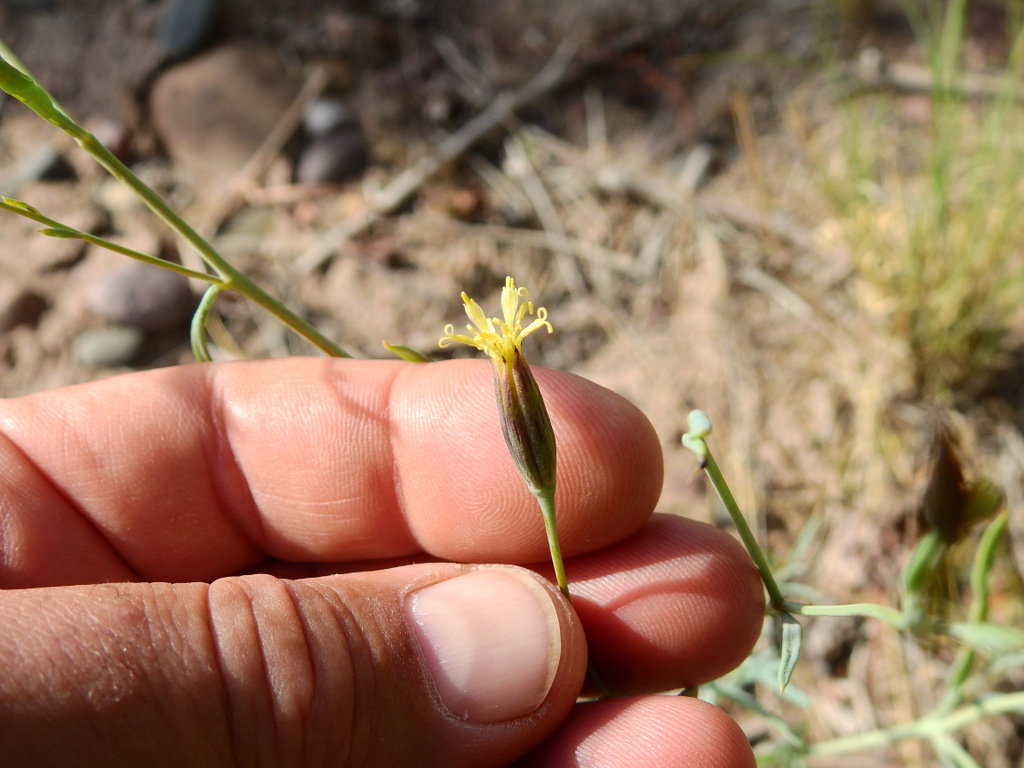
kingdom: Plantae
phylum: Tracheophyta
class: Magnoliopsida
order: Asterales
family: Asteraceae
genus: Porophyllum
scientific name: Porophyllum obscurum
